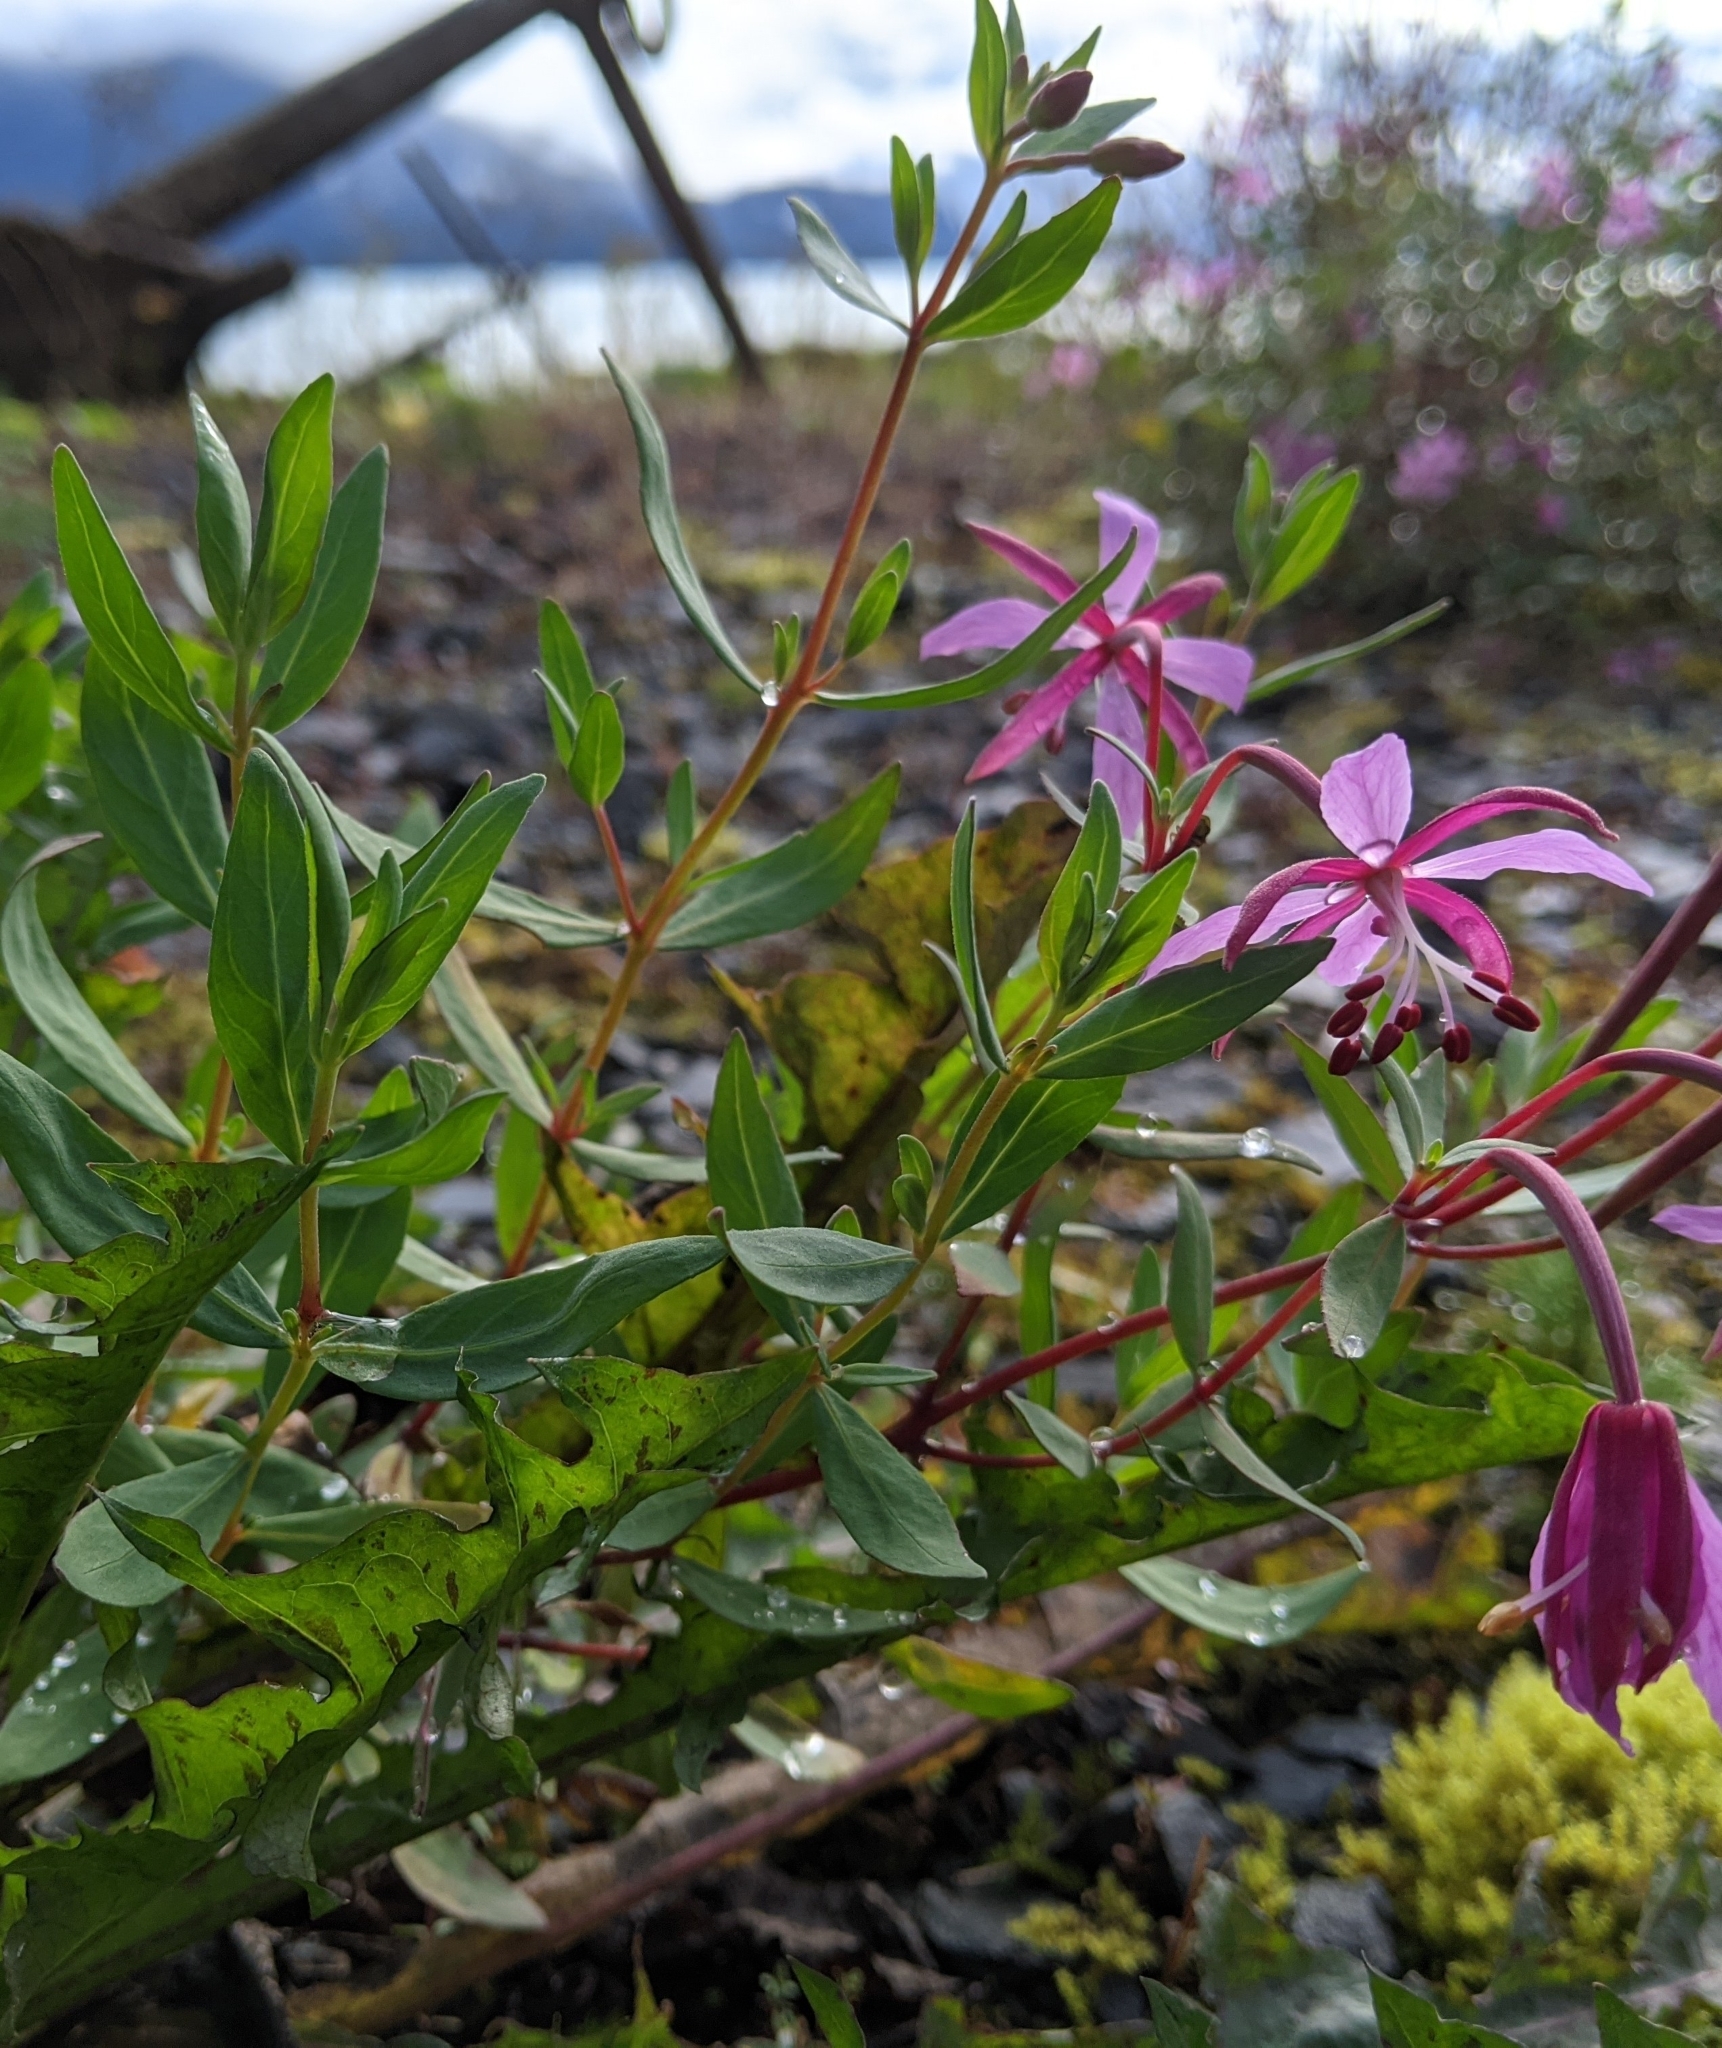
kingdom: Plantae
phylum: Tracheophyta
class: Magnoliopsida
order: Myrtales
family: Onagraceae
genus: Chamaenerion
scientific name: Chamaenerion latifolium
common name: Dwarf fireweed
